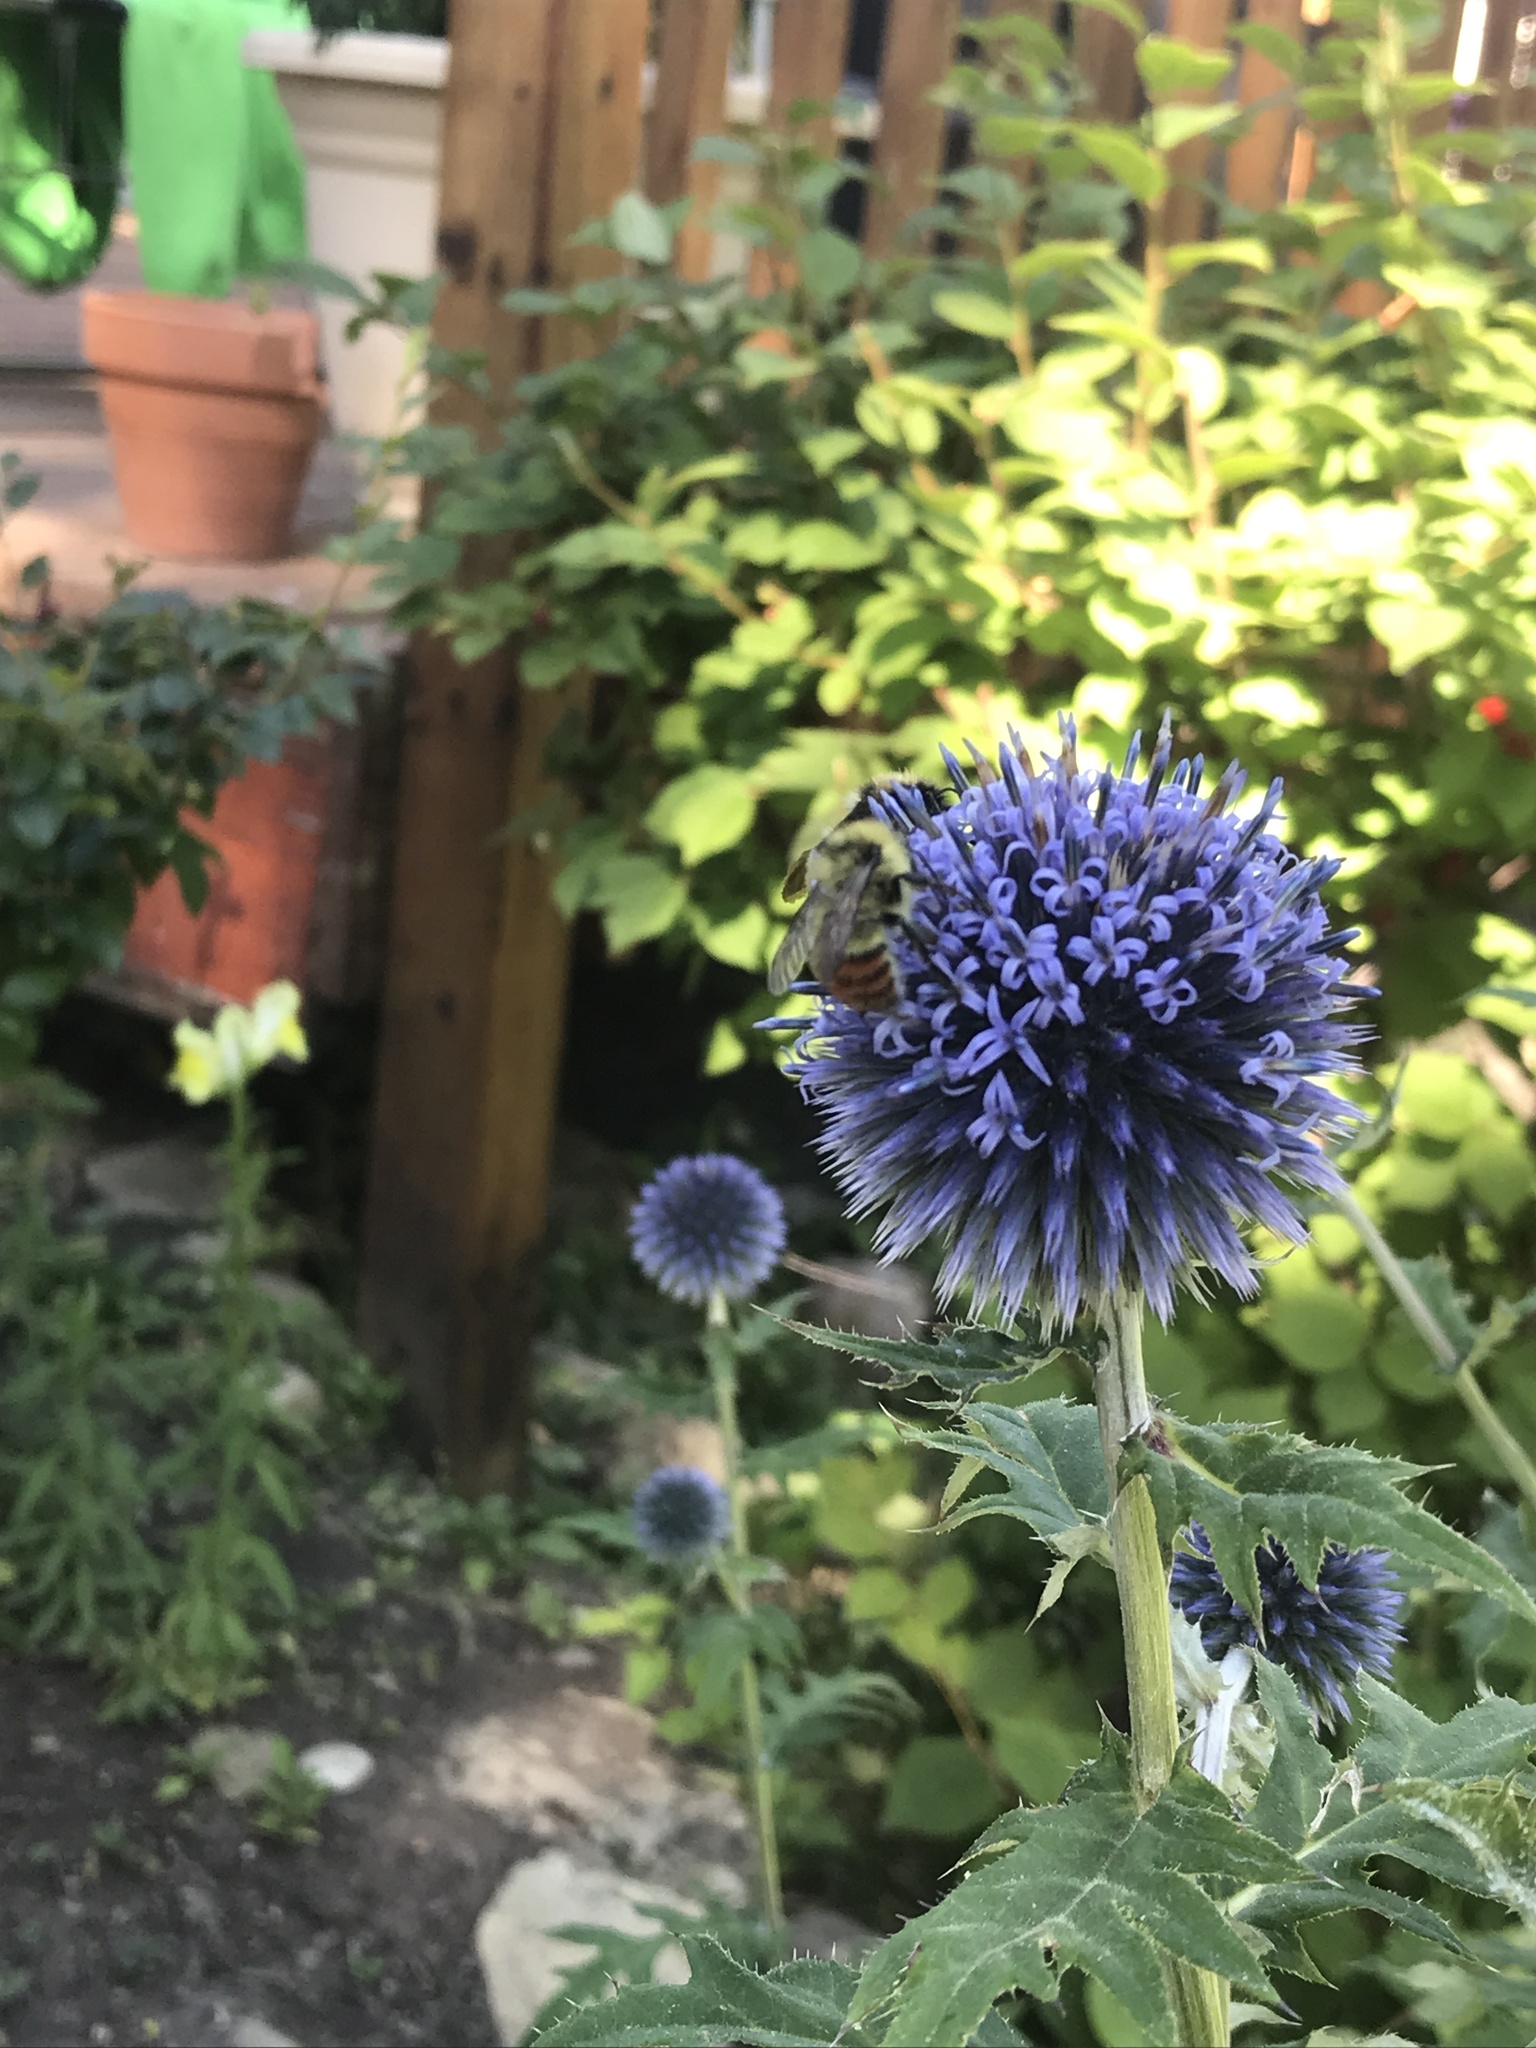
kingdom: Animalia
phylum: Arthropoda
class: Insecta
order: Hymenoptera
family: Apidae
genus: Bombus
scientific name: Bombus centralis
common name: Central bumble bee
